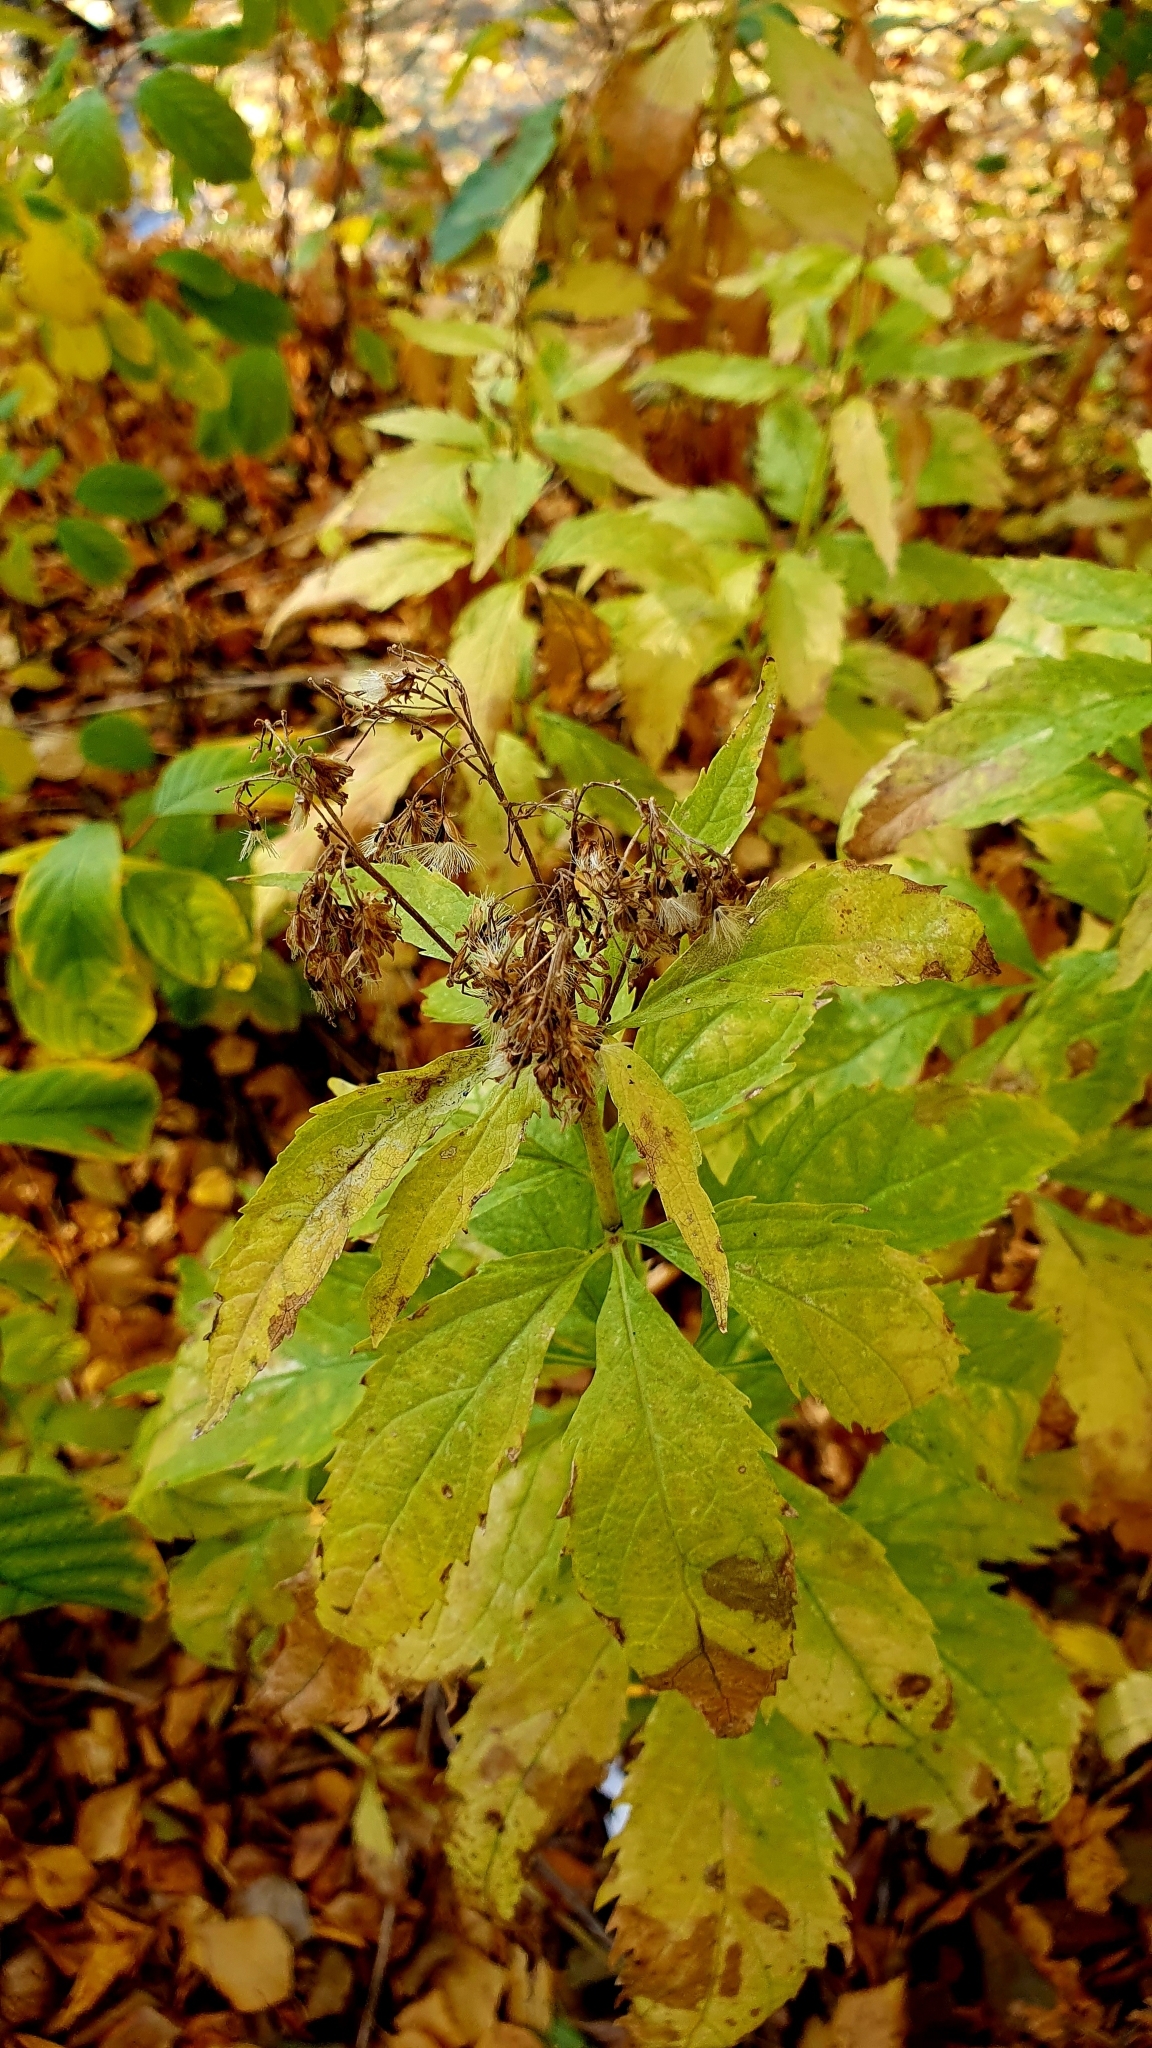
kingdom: Plantae
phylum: Tracheophyta
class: Magnoliopsida
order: Asterales
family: Asteraceae
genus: Eupatorium
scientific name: Eupatorium cannabinum
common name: Hemp-agrimony
